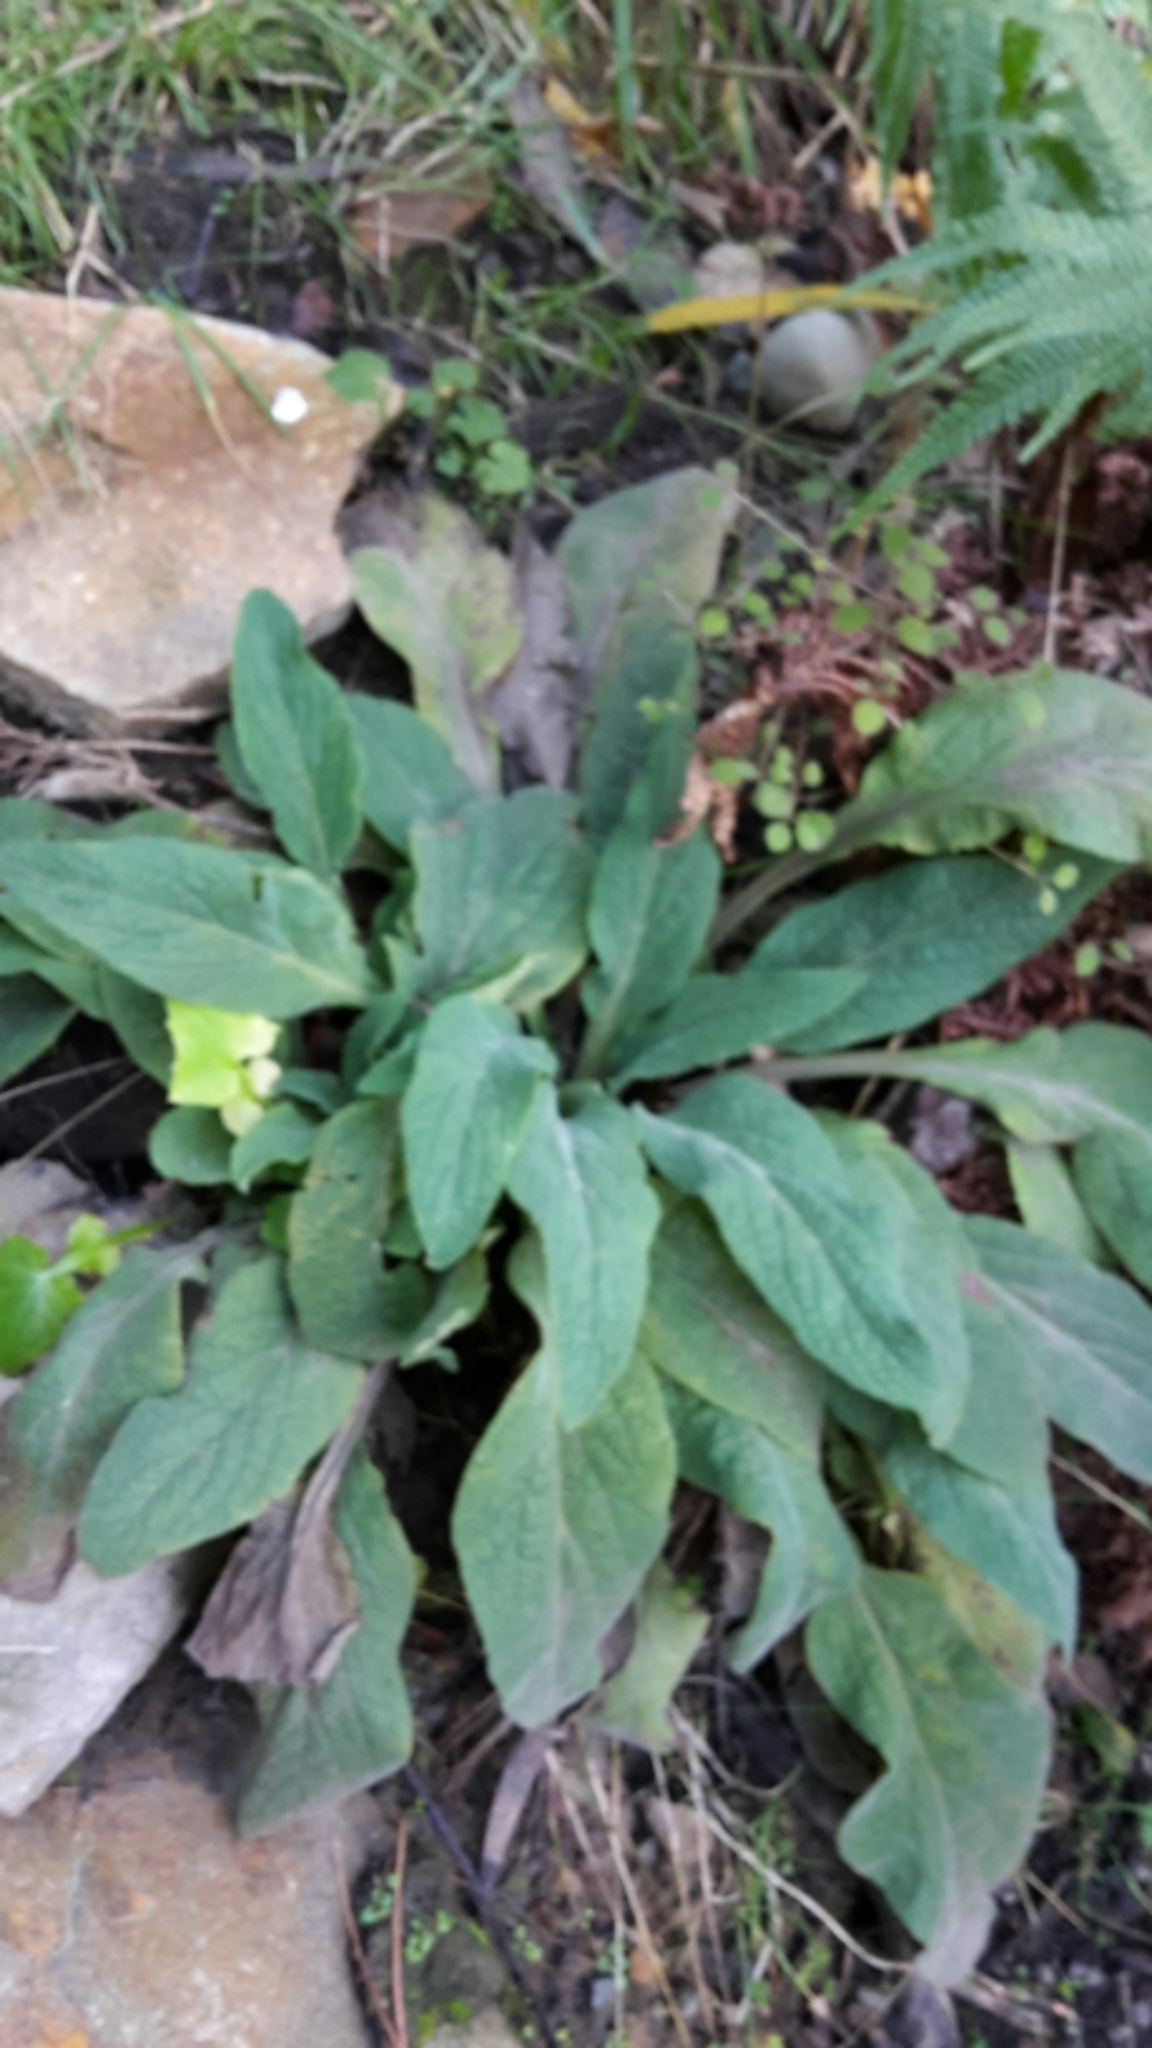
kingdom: Plantae
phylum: Tracheophyta
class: Magnoliopsida
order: Lamiales
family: Plantaginaceae
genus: Digitalis
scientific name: Digitalis purpurea
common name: Foxglove
